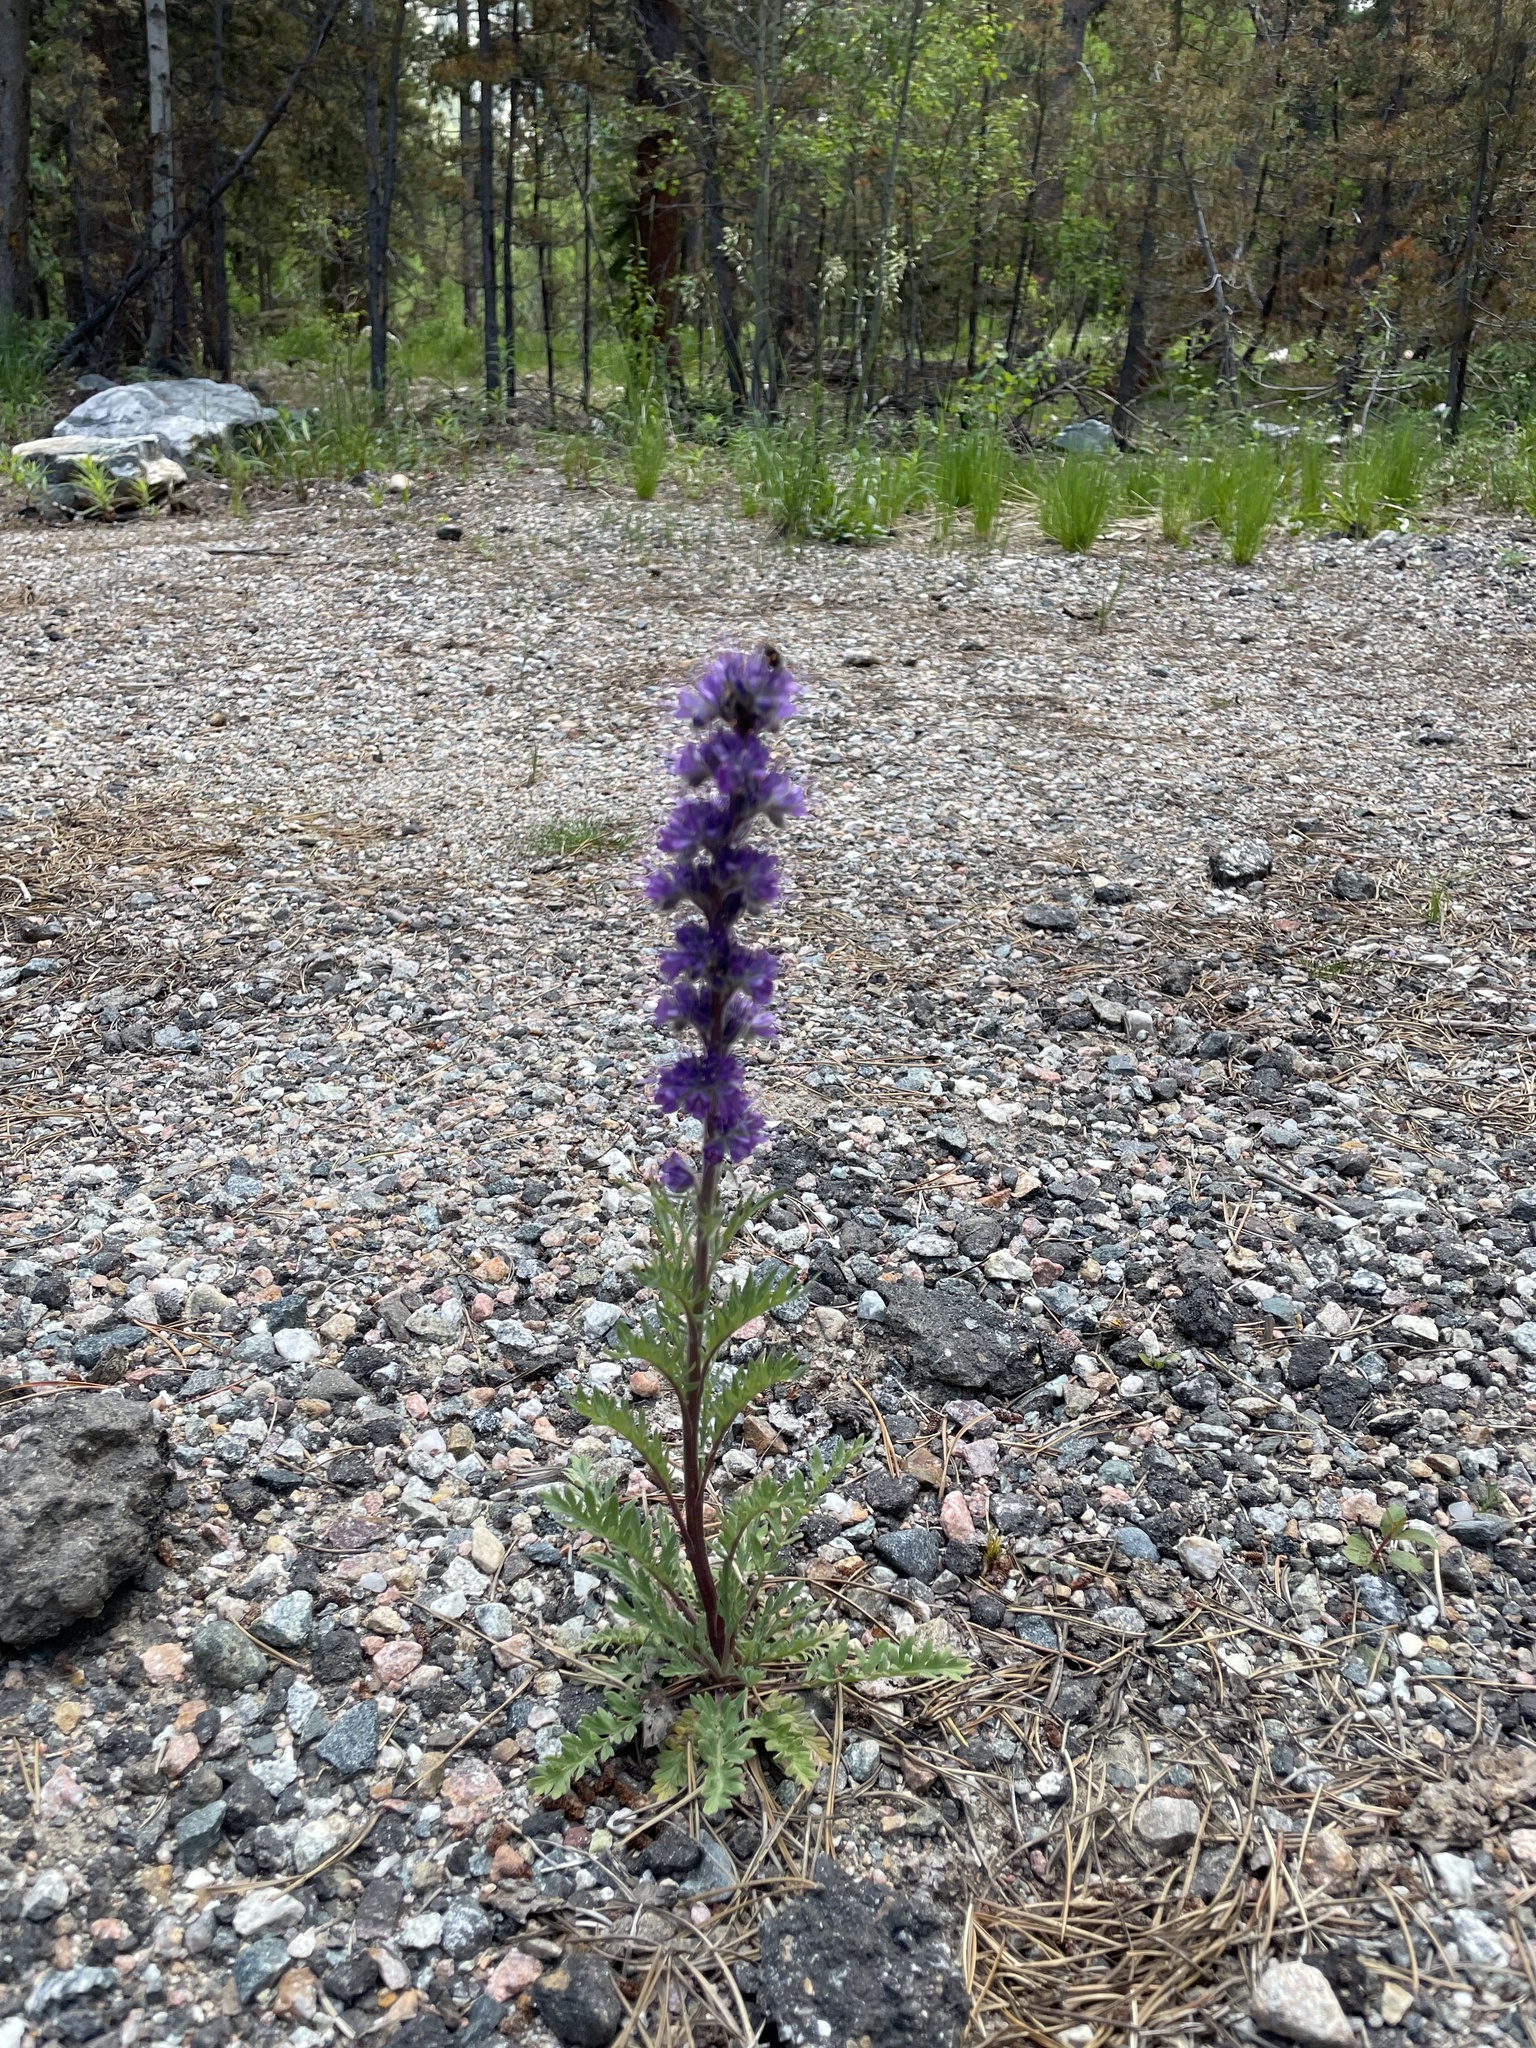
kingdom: Plantae
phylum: Tracheophyta
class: Magnoliopsida
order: Boraginales
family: Hydrophyllaceae
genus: Phacelia
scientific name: Phacelia sericea
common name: Silky phacelia
